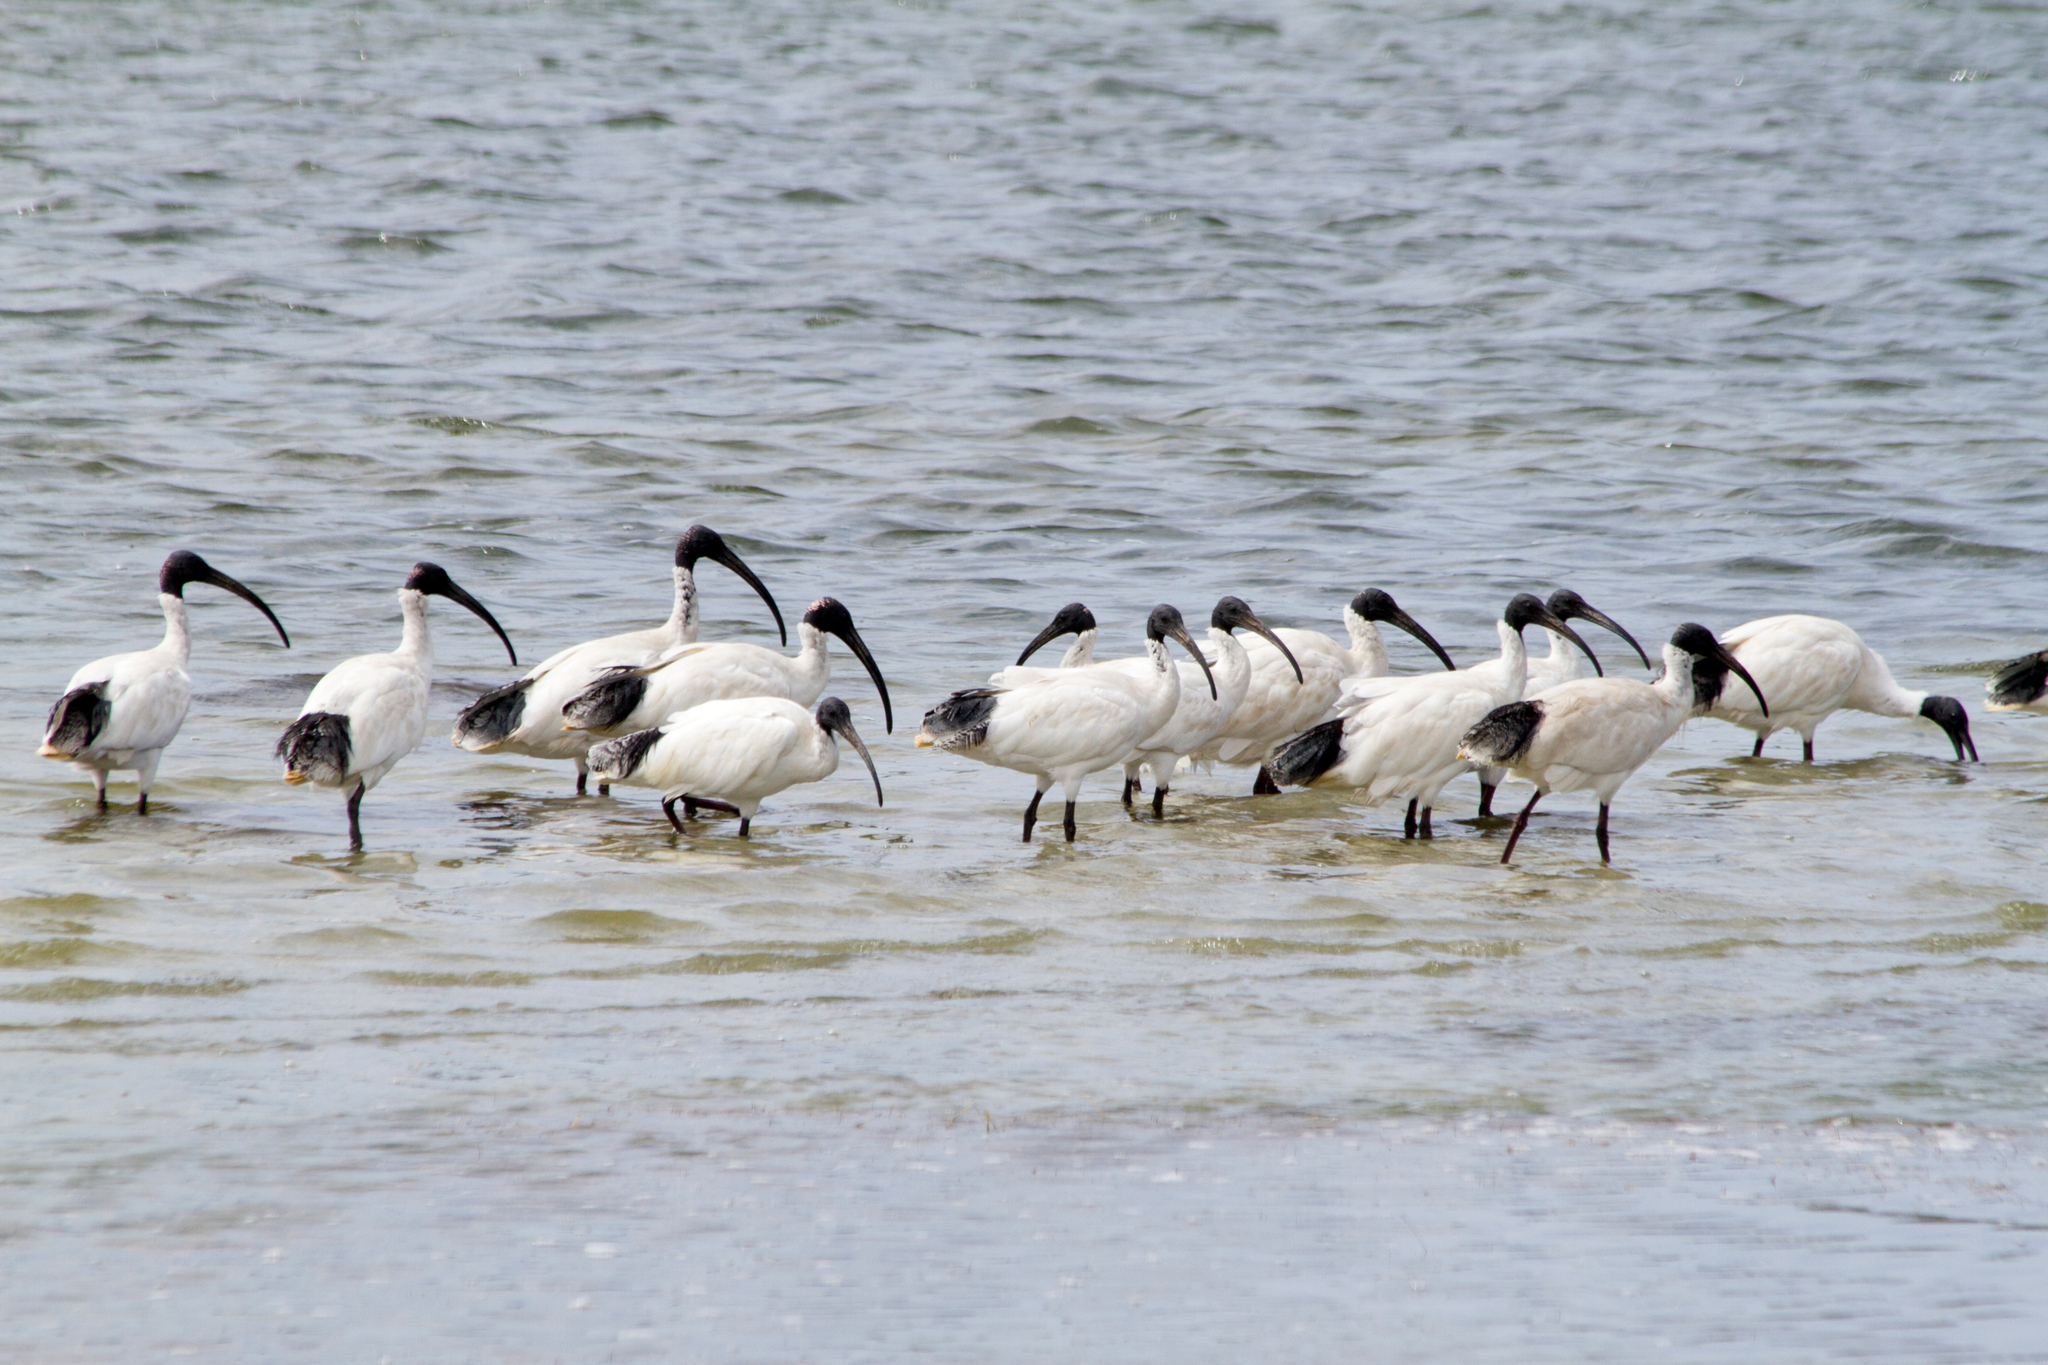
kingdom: Animalia
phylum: Chordata
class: Aves
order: Pelecaniformes
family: Threskiornithidae
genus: Threskiornis
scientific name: Threskiornis molucca
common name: Australian white ibis
